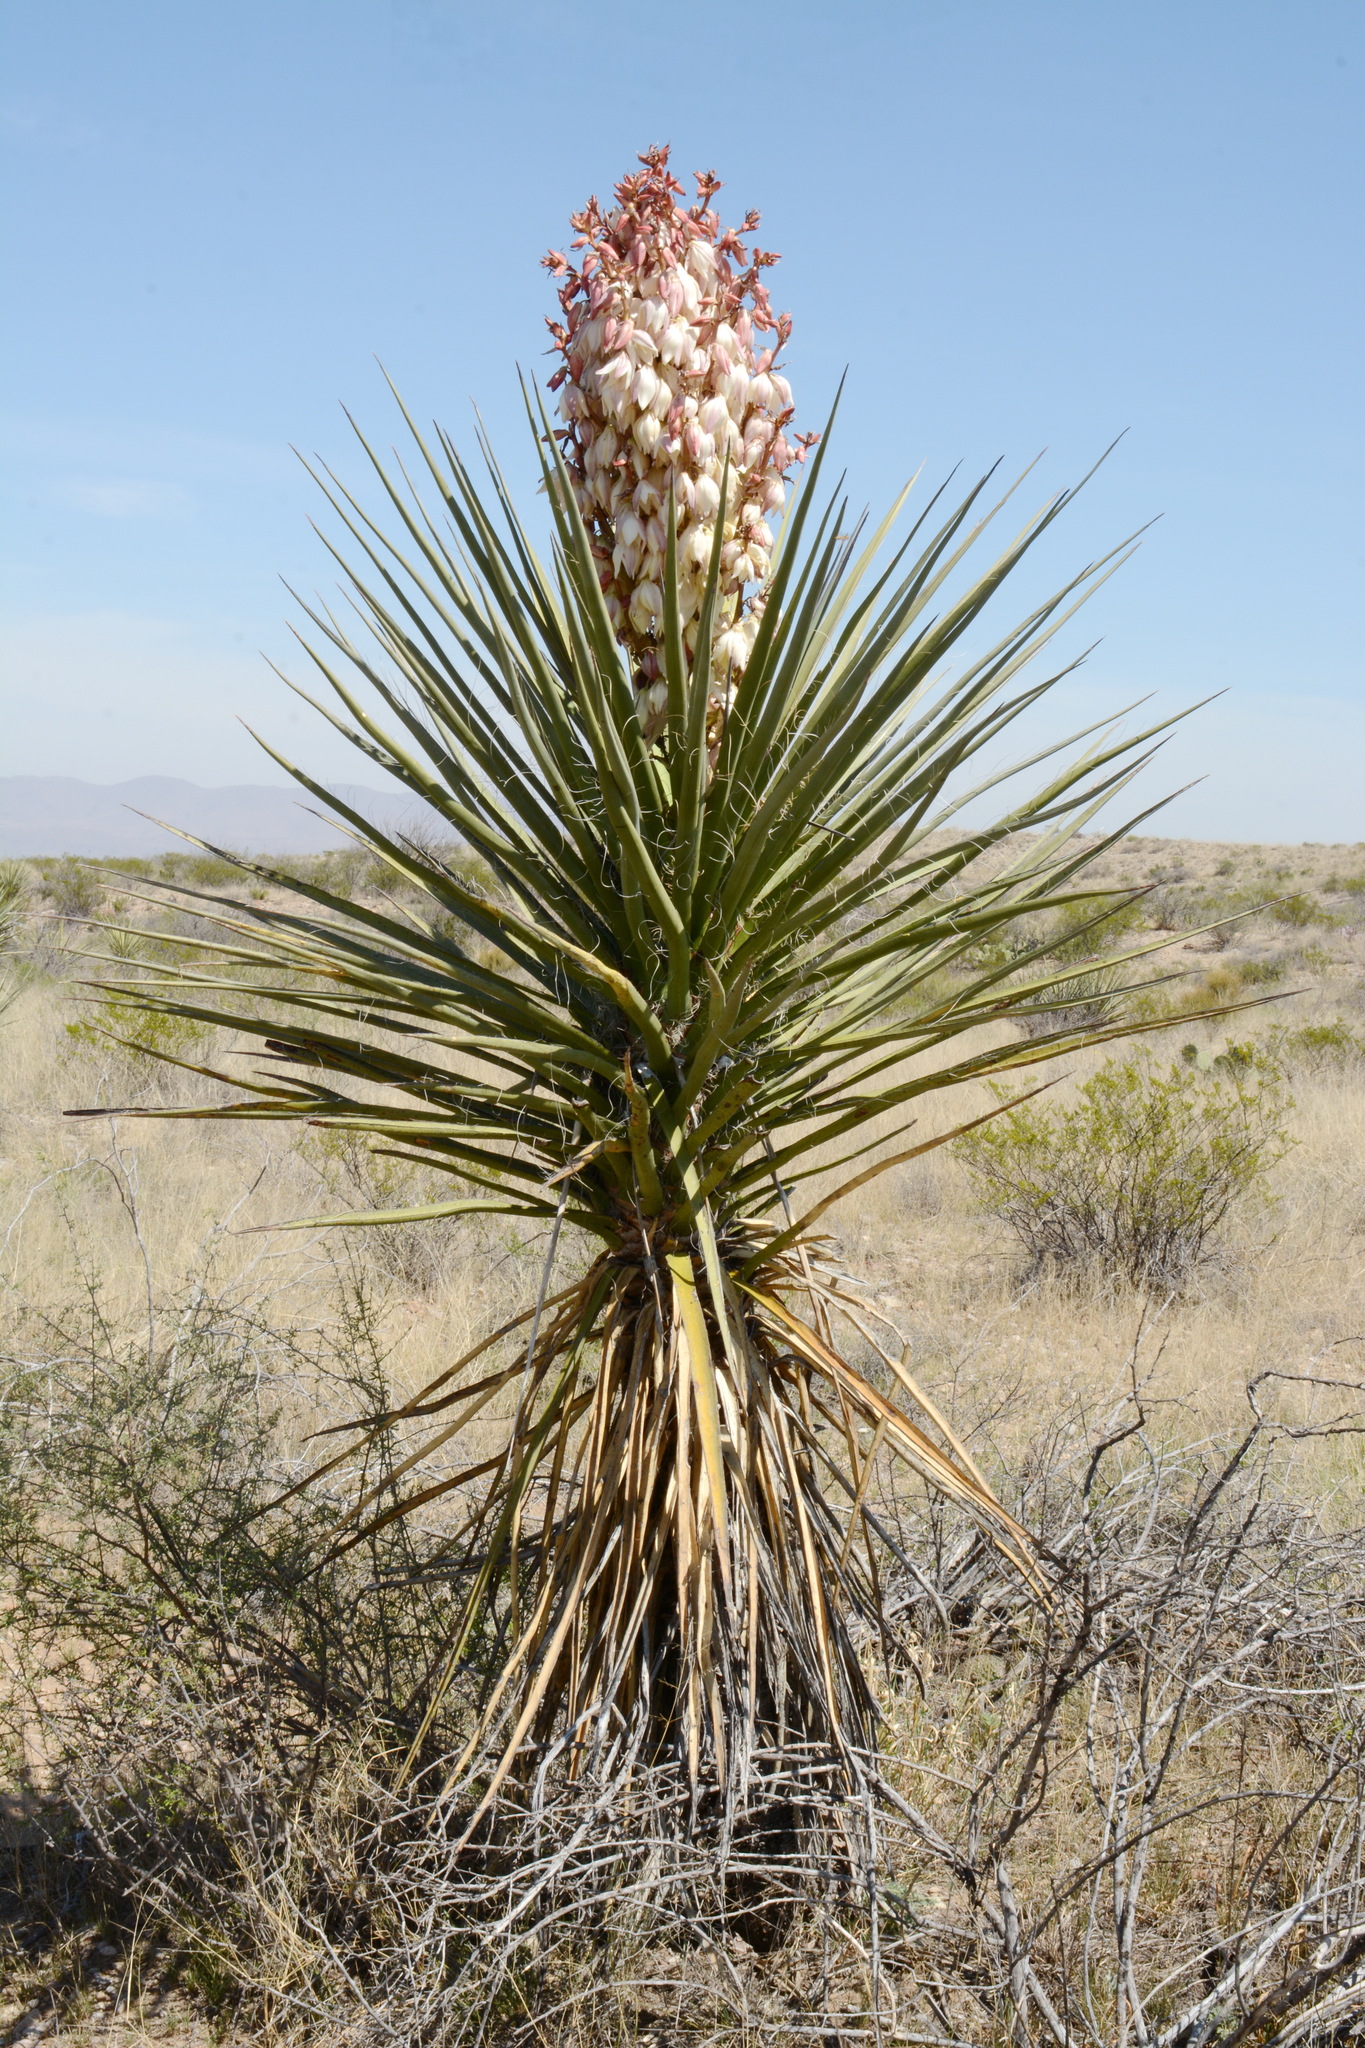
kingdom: Plantae
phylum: Tracheophyta
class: Liliopsida
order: Asparagales
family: Asparagaceae
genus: Yucca
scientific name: Yucca treculiana
